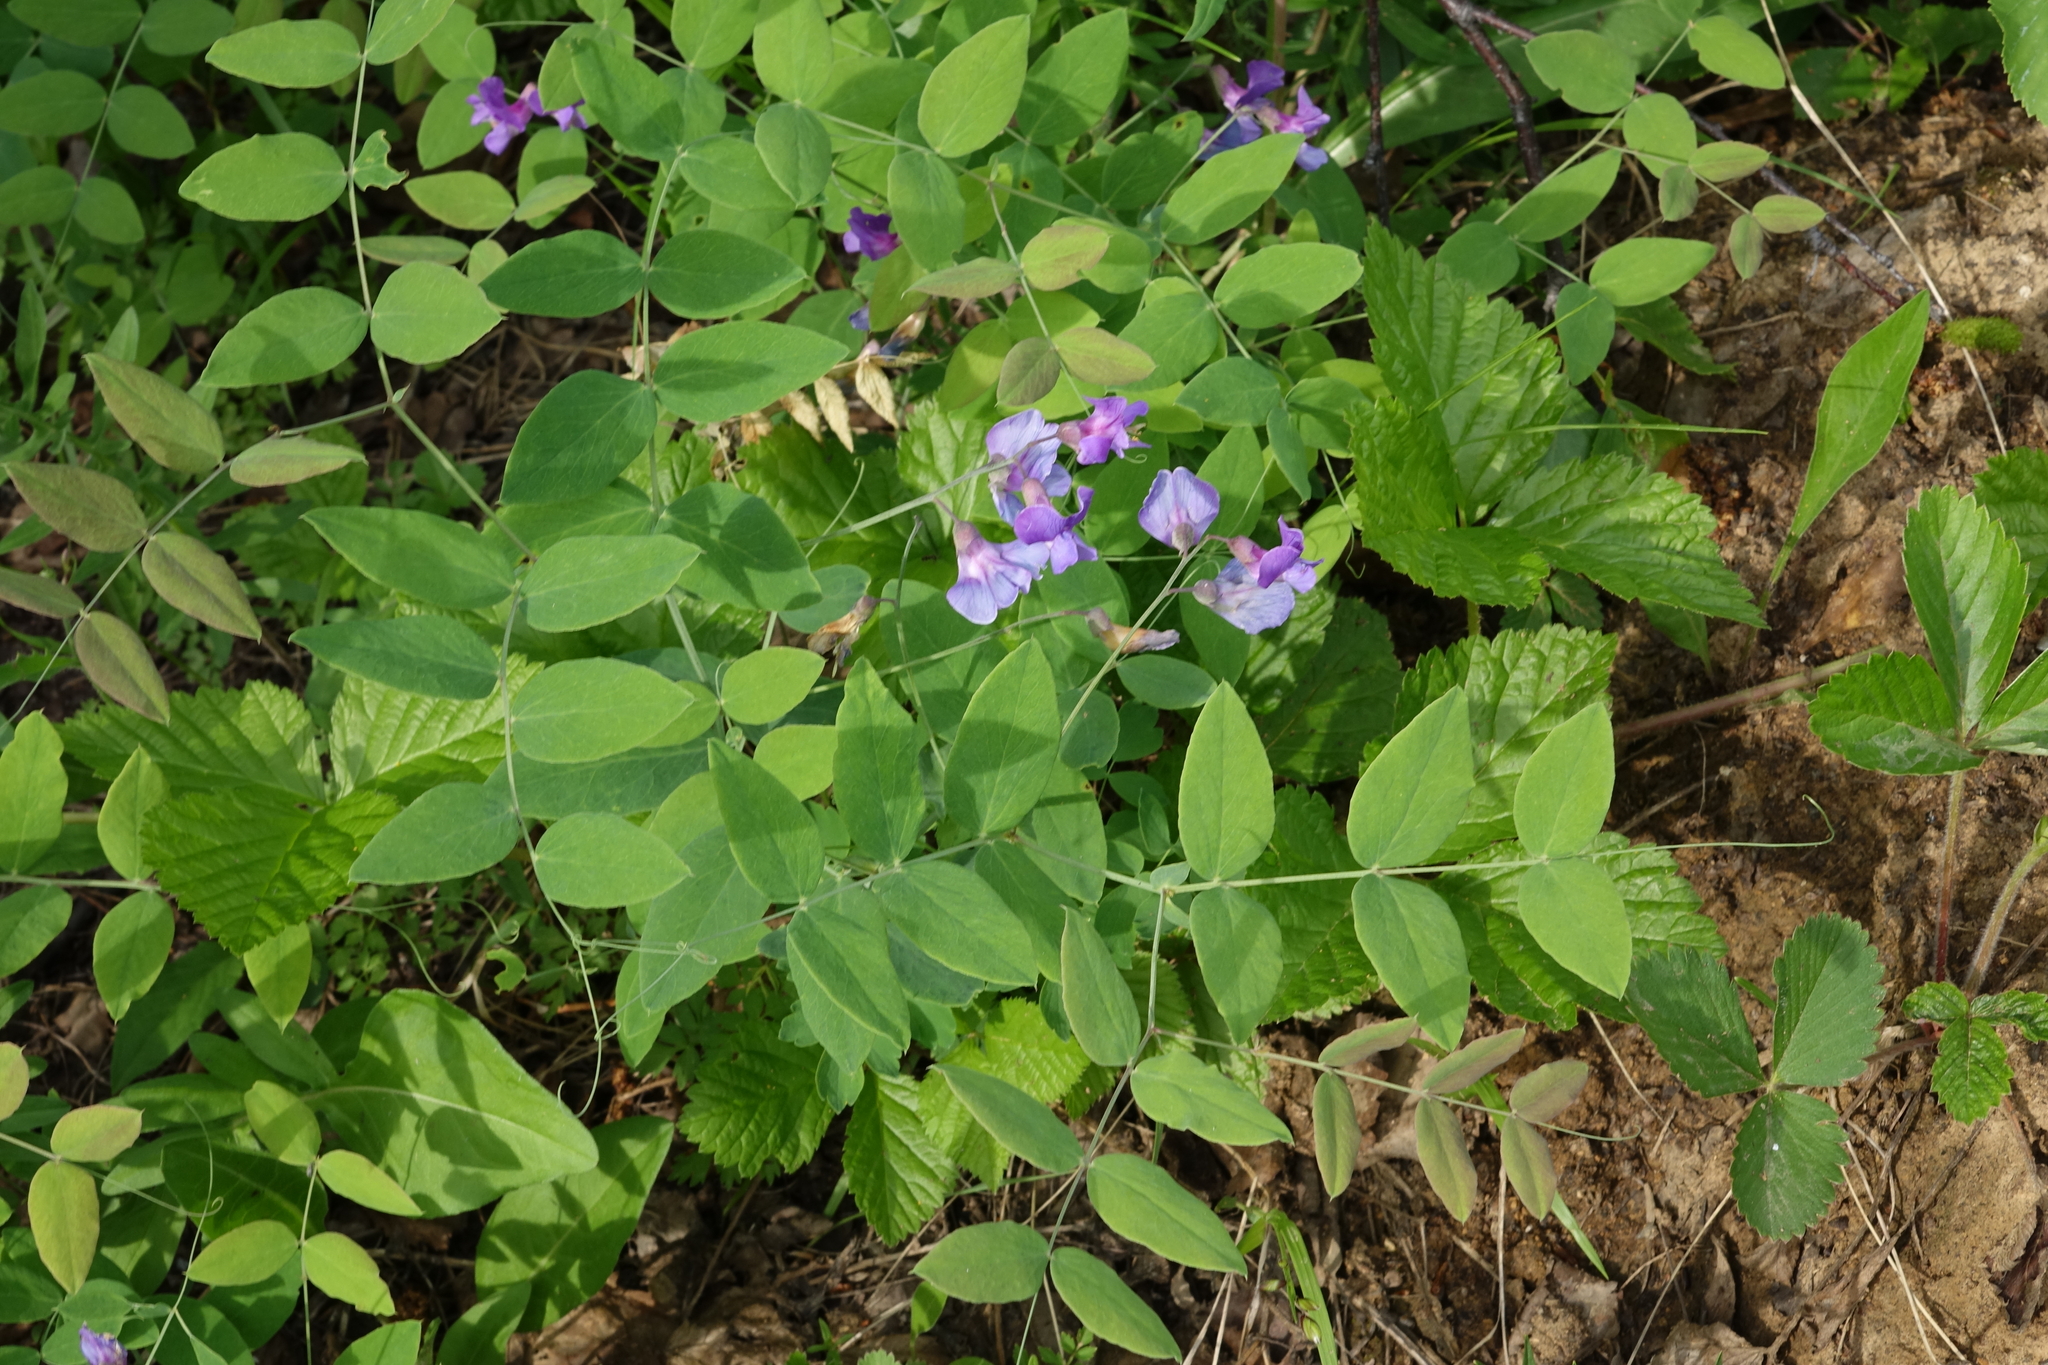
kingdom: Plantae
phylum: Tracheophyta
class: Magnoliopsida
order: Fabales
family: Fabaceae
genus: Lathyrus
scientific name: Lathyrus humilis
